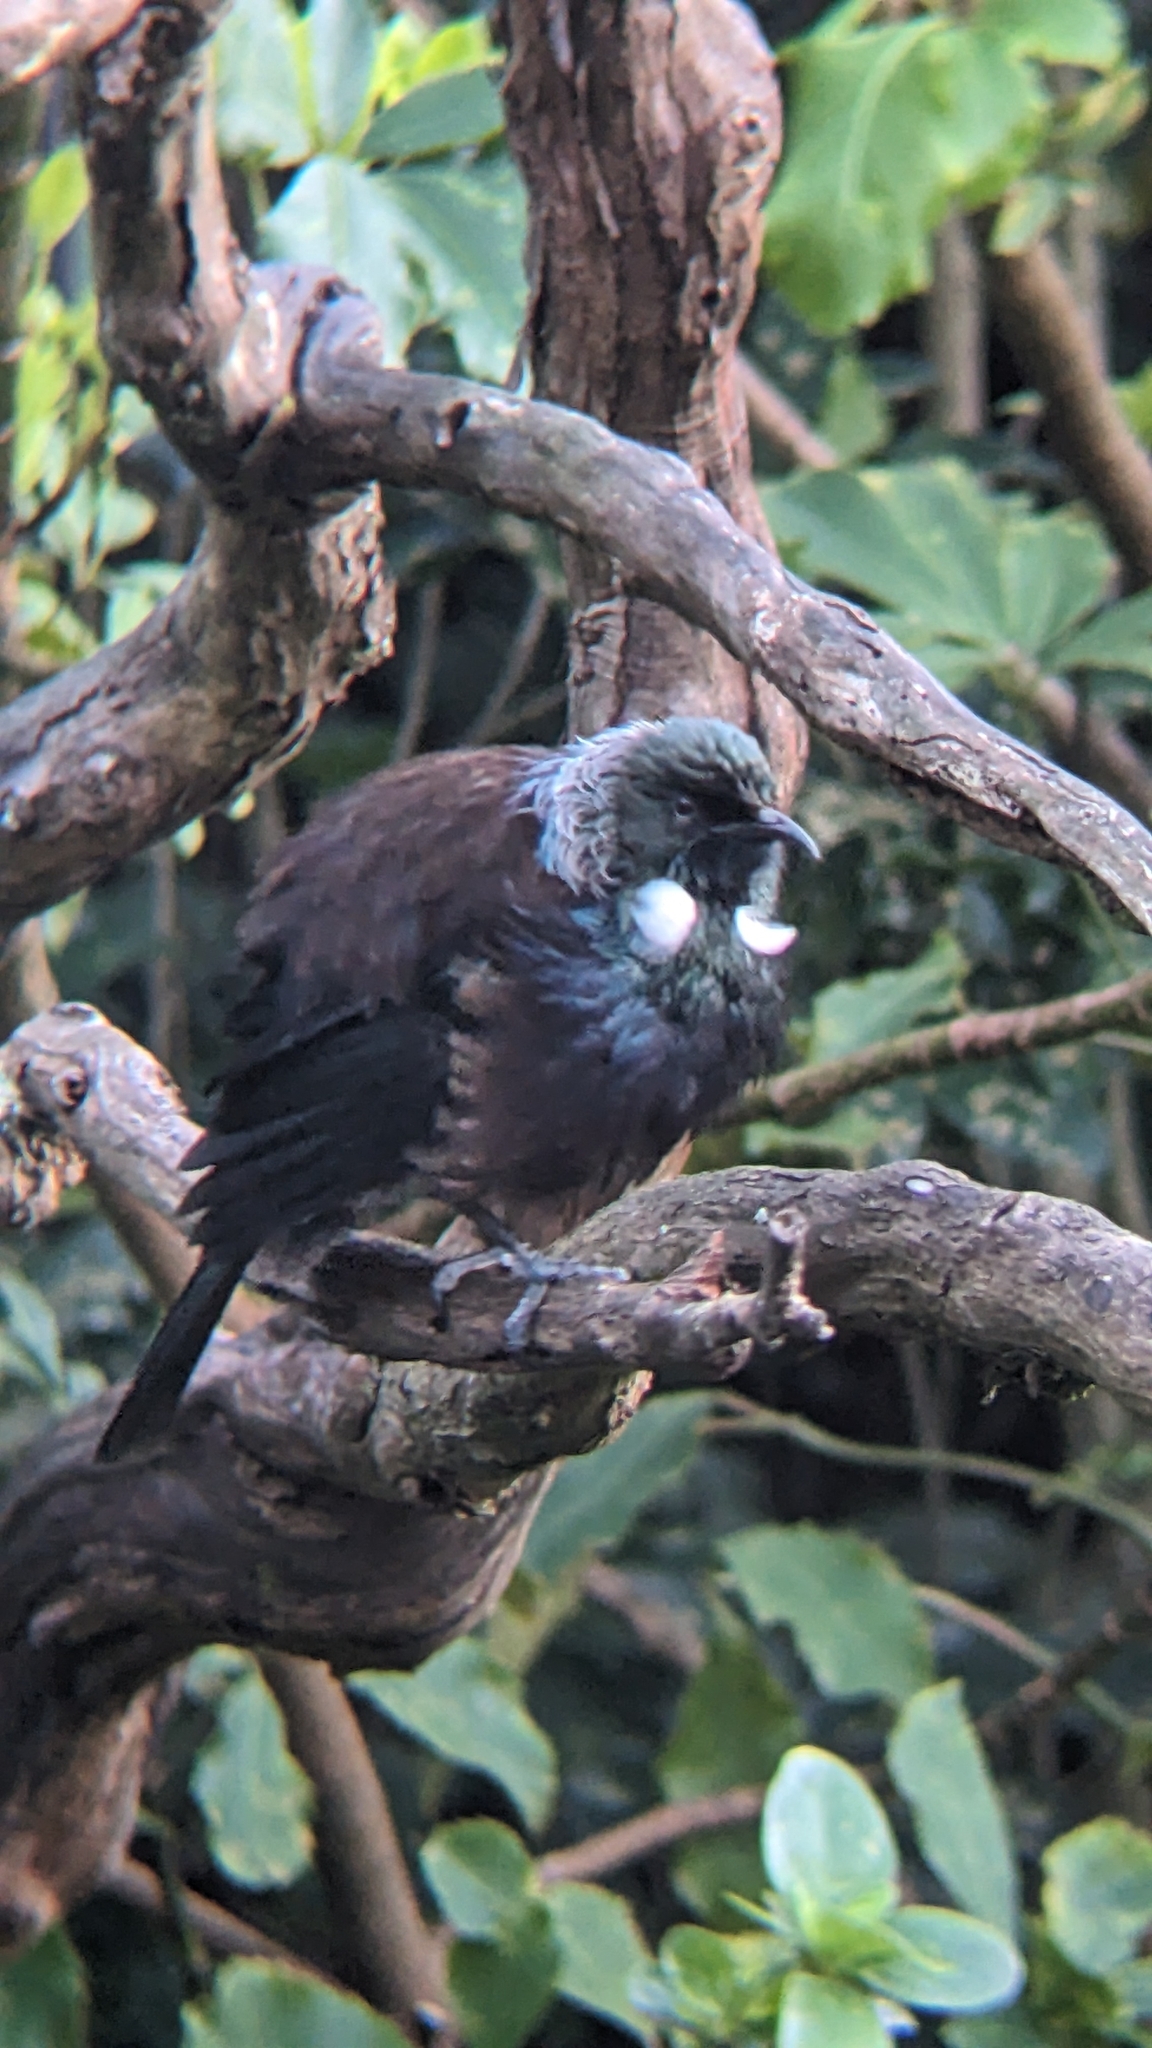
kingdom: Animalia
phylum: Chordata
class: Aves
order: Passeriformes
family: Meliphagidae
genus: Prosthemadera
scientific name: Prosthemadera novaeseelandiae
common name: Tui
